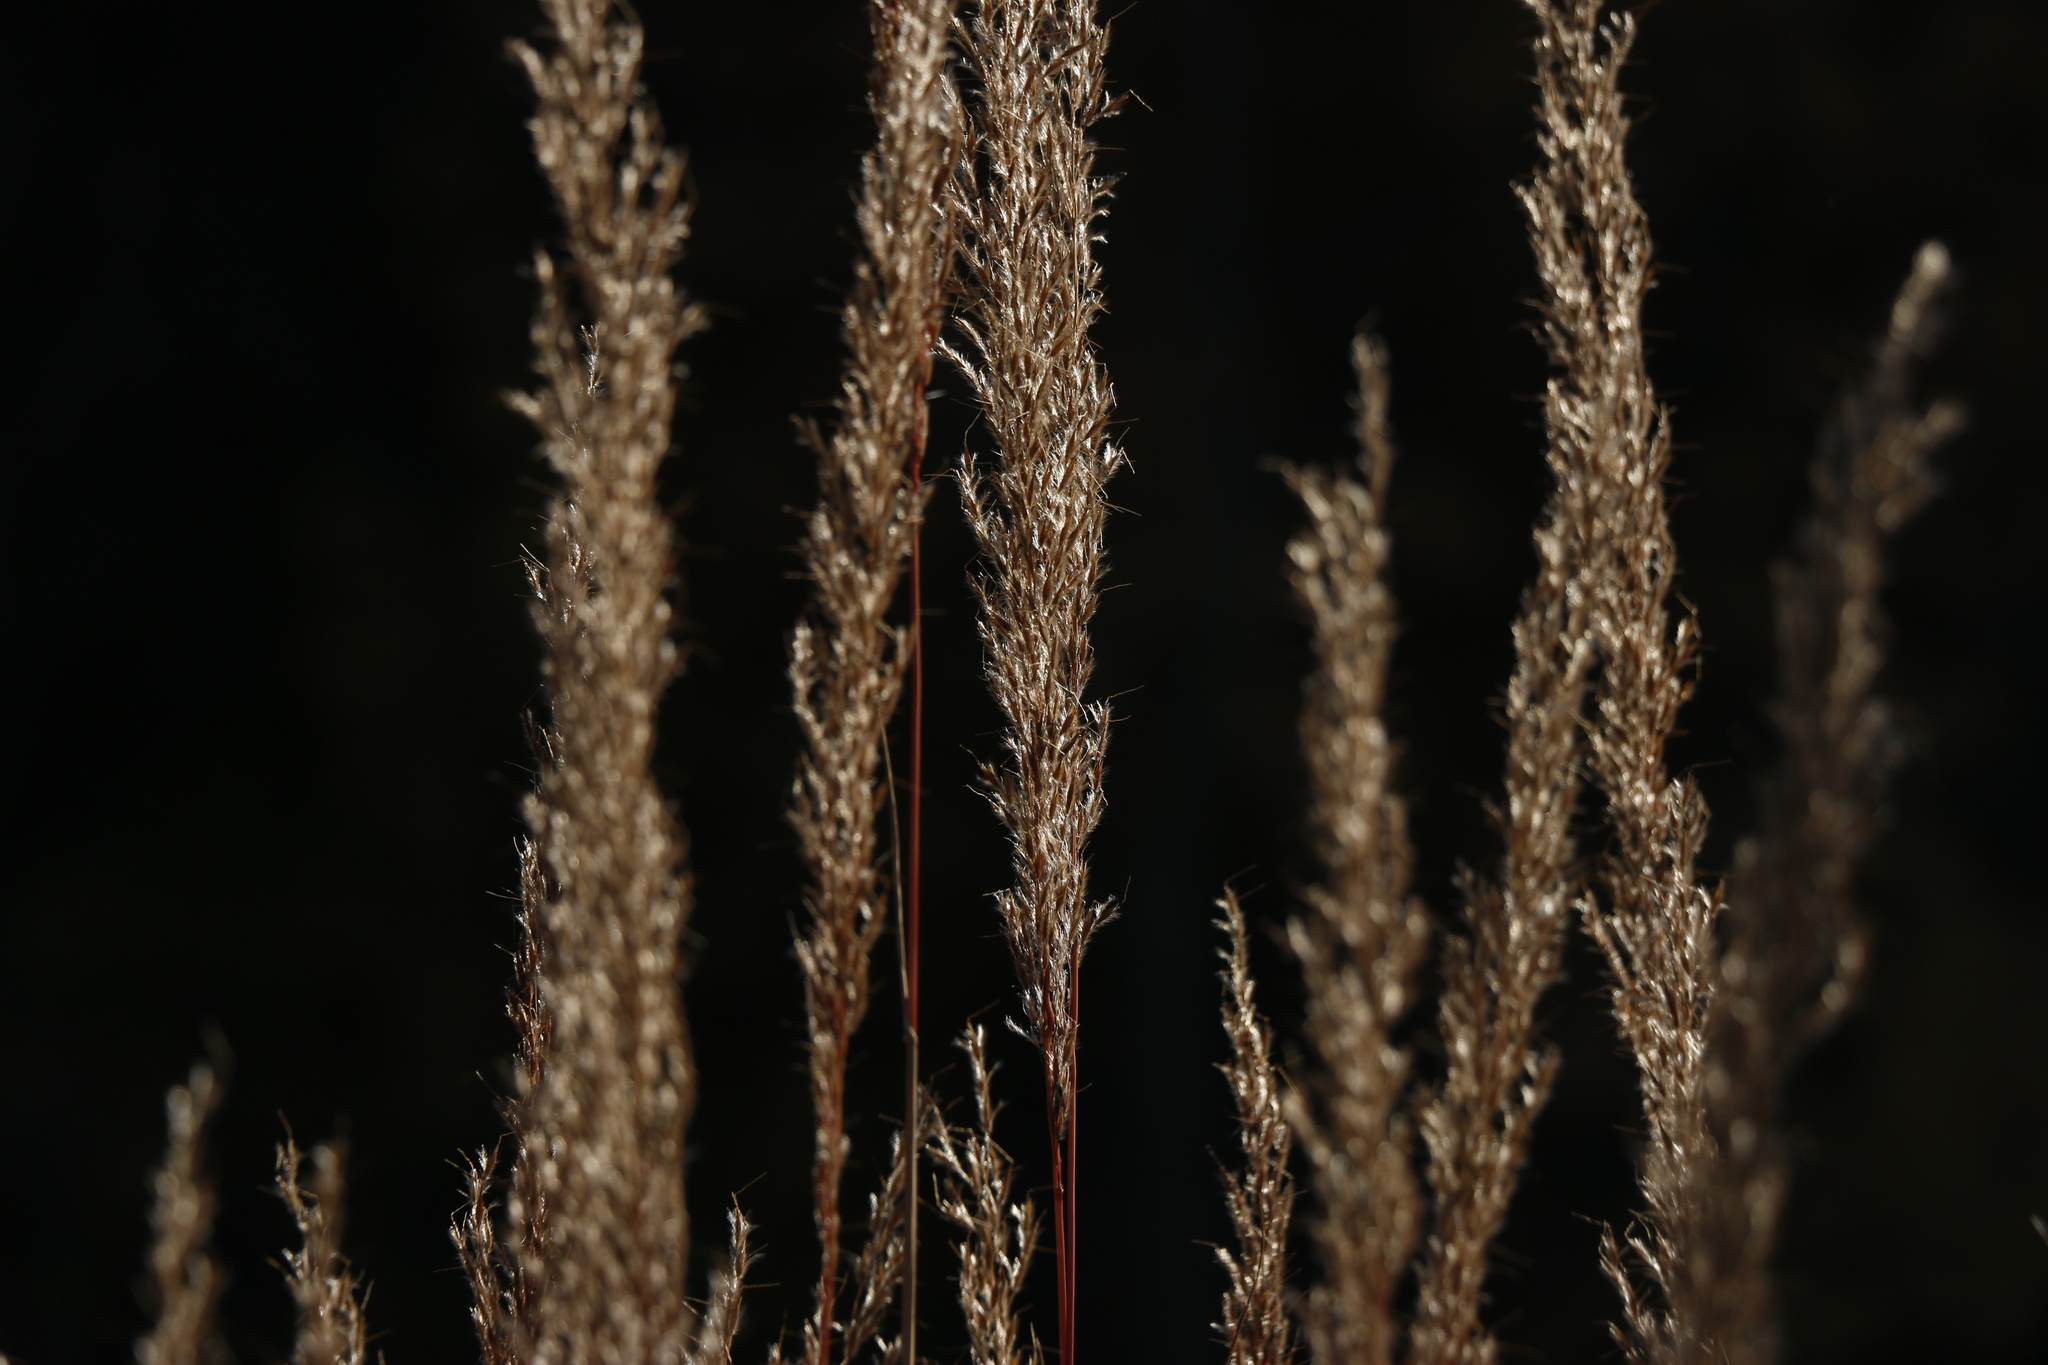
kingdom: Plantae
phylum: Tracheophyta
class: Liliopsida
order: Poales
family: Poaceae
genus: Sorghastrum
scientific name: Sorghastrum nutans
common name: Indian grass
